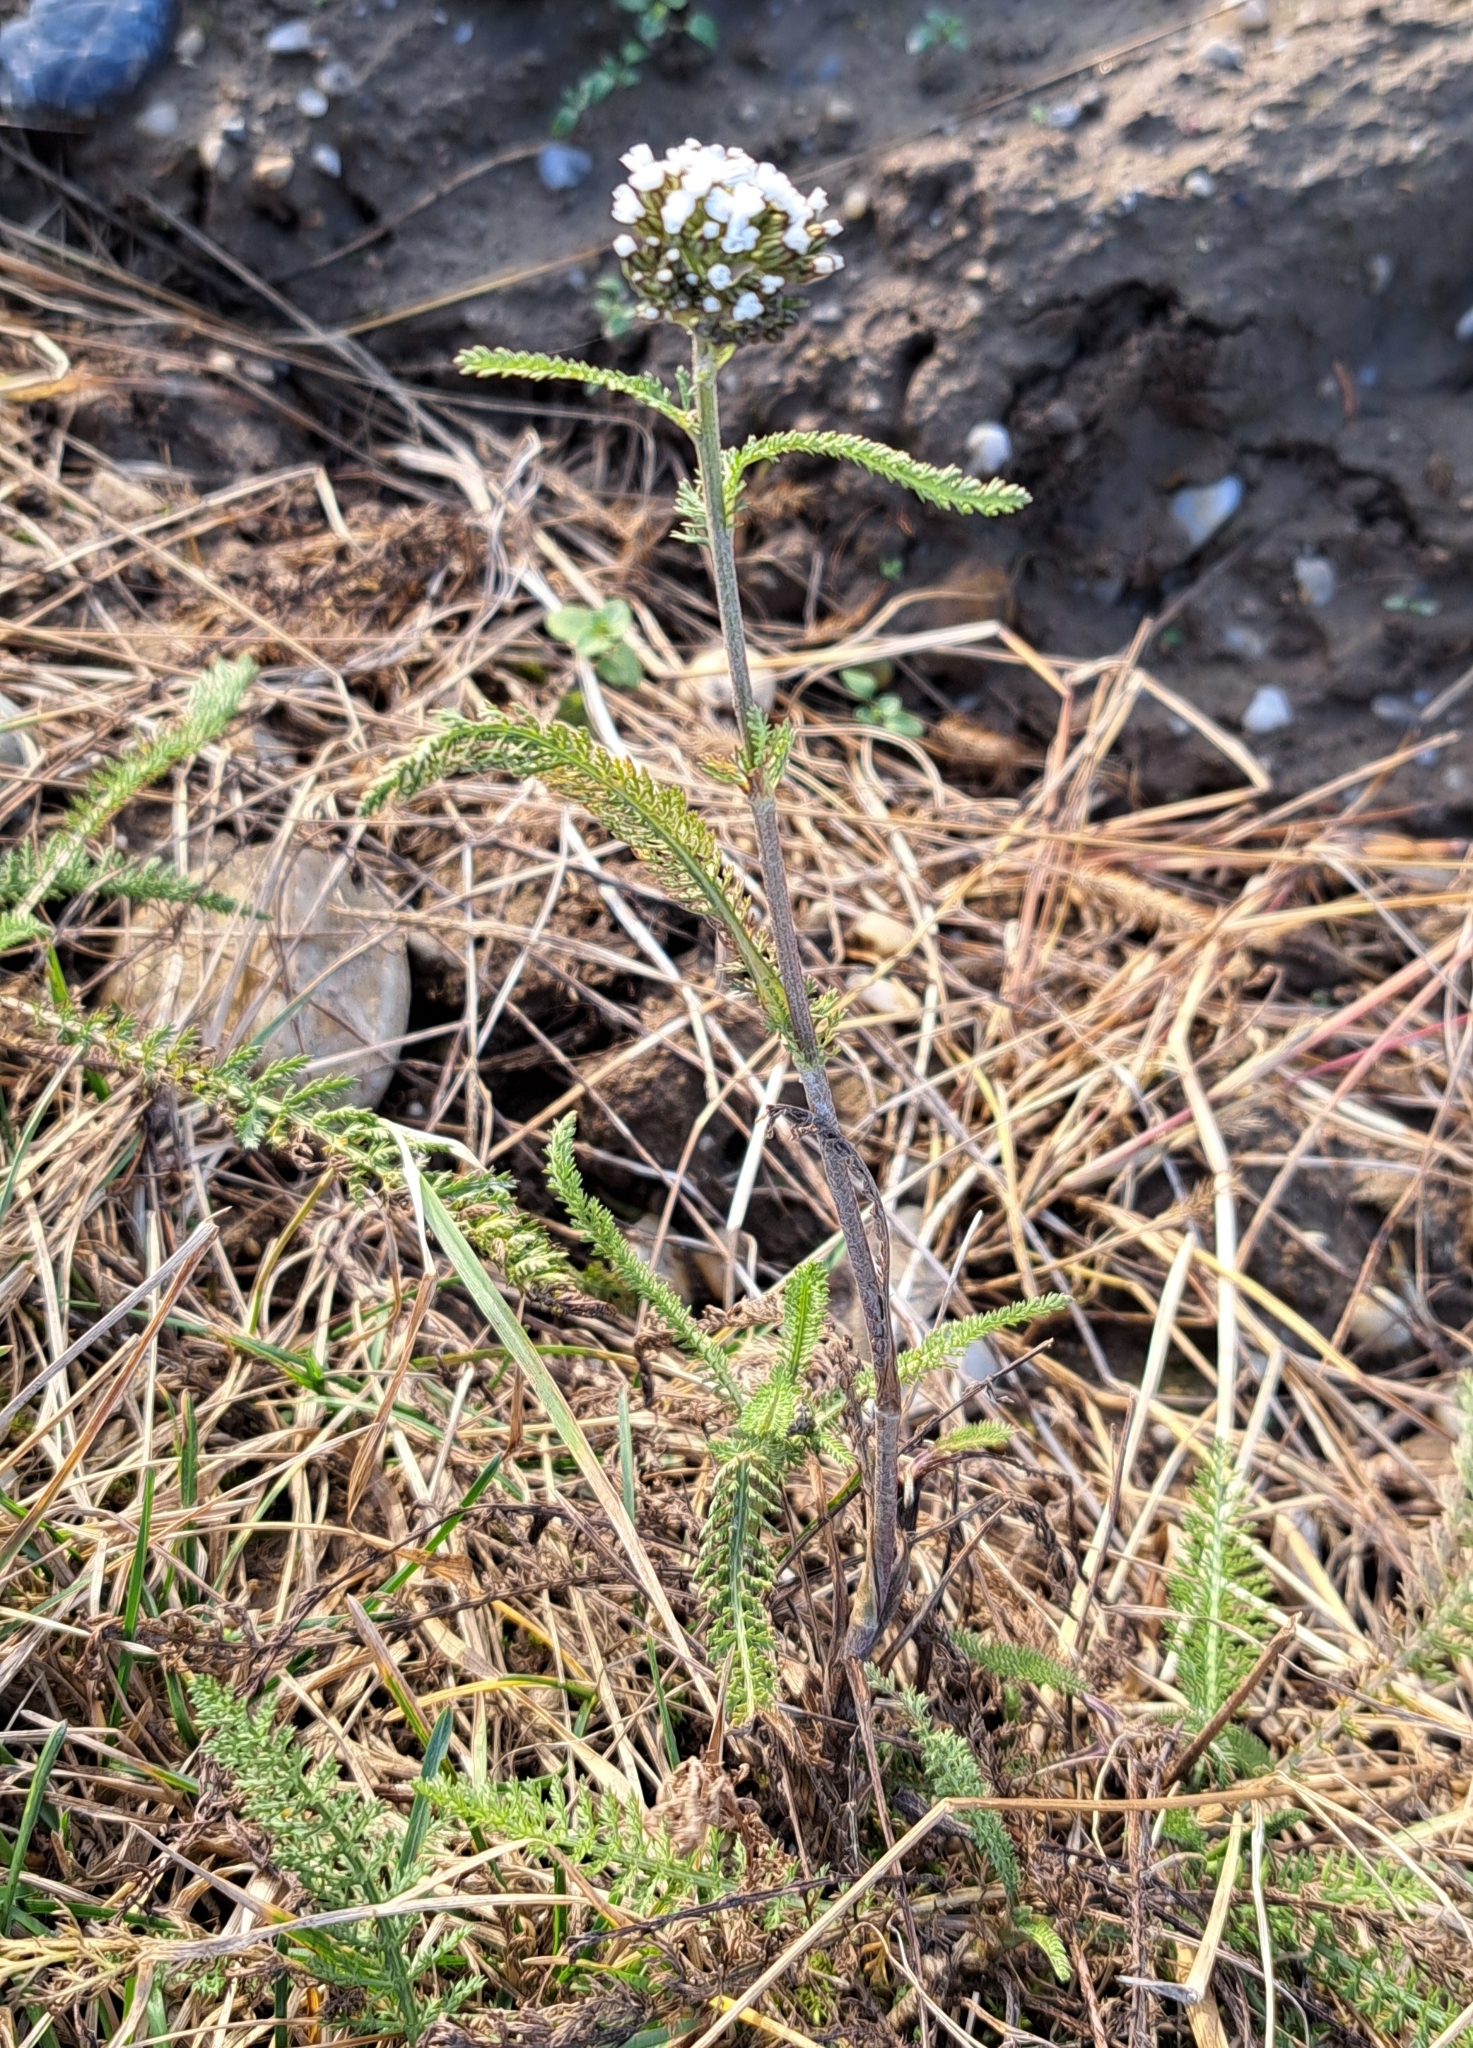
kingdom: Plantae
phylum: Tracheophyta
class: Magnoliopsida
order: Asterales
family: Asteraceae
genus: Achillea
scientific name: Achillea millefolium
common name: Yarrow
